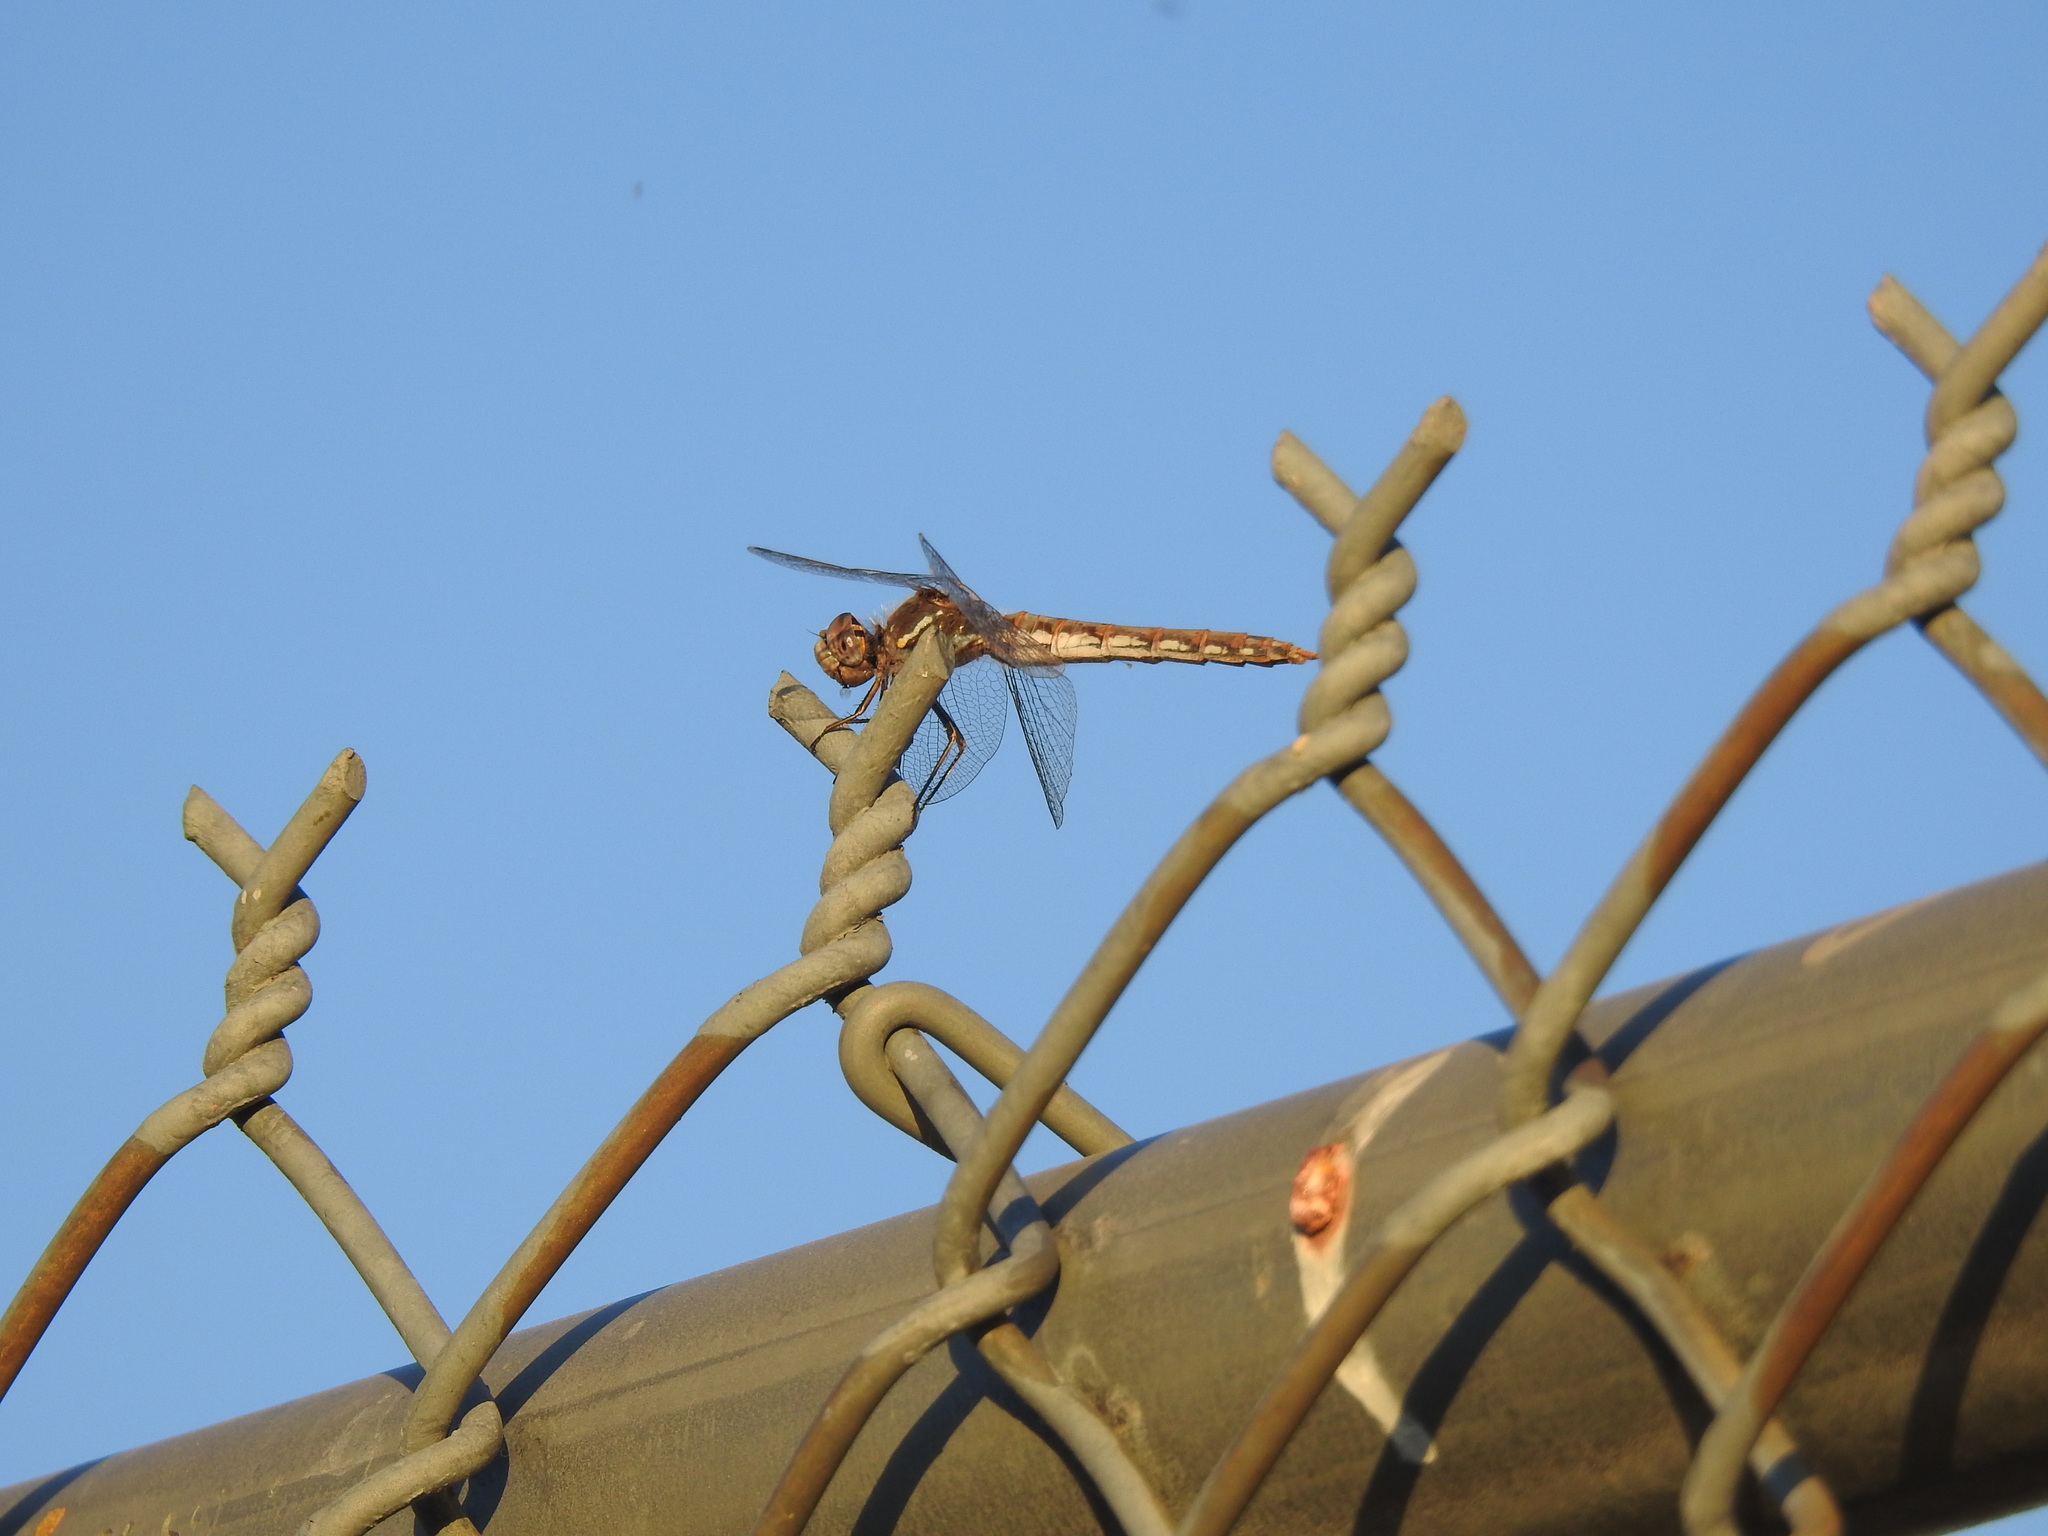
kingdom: Animalia
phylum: Arthropoda
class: Insecta
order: Odonata
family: Libellulidae
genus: Sympetrum
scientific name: Sympetrum corruptum
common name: Variegated meadowhawk
